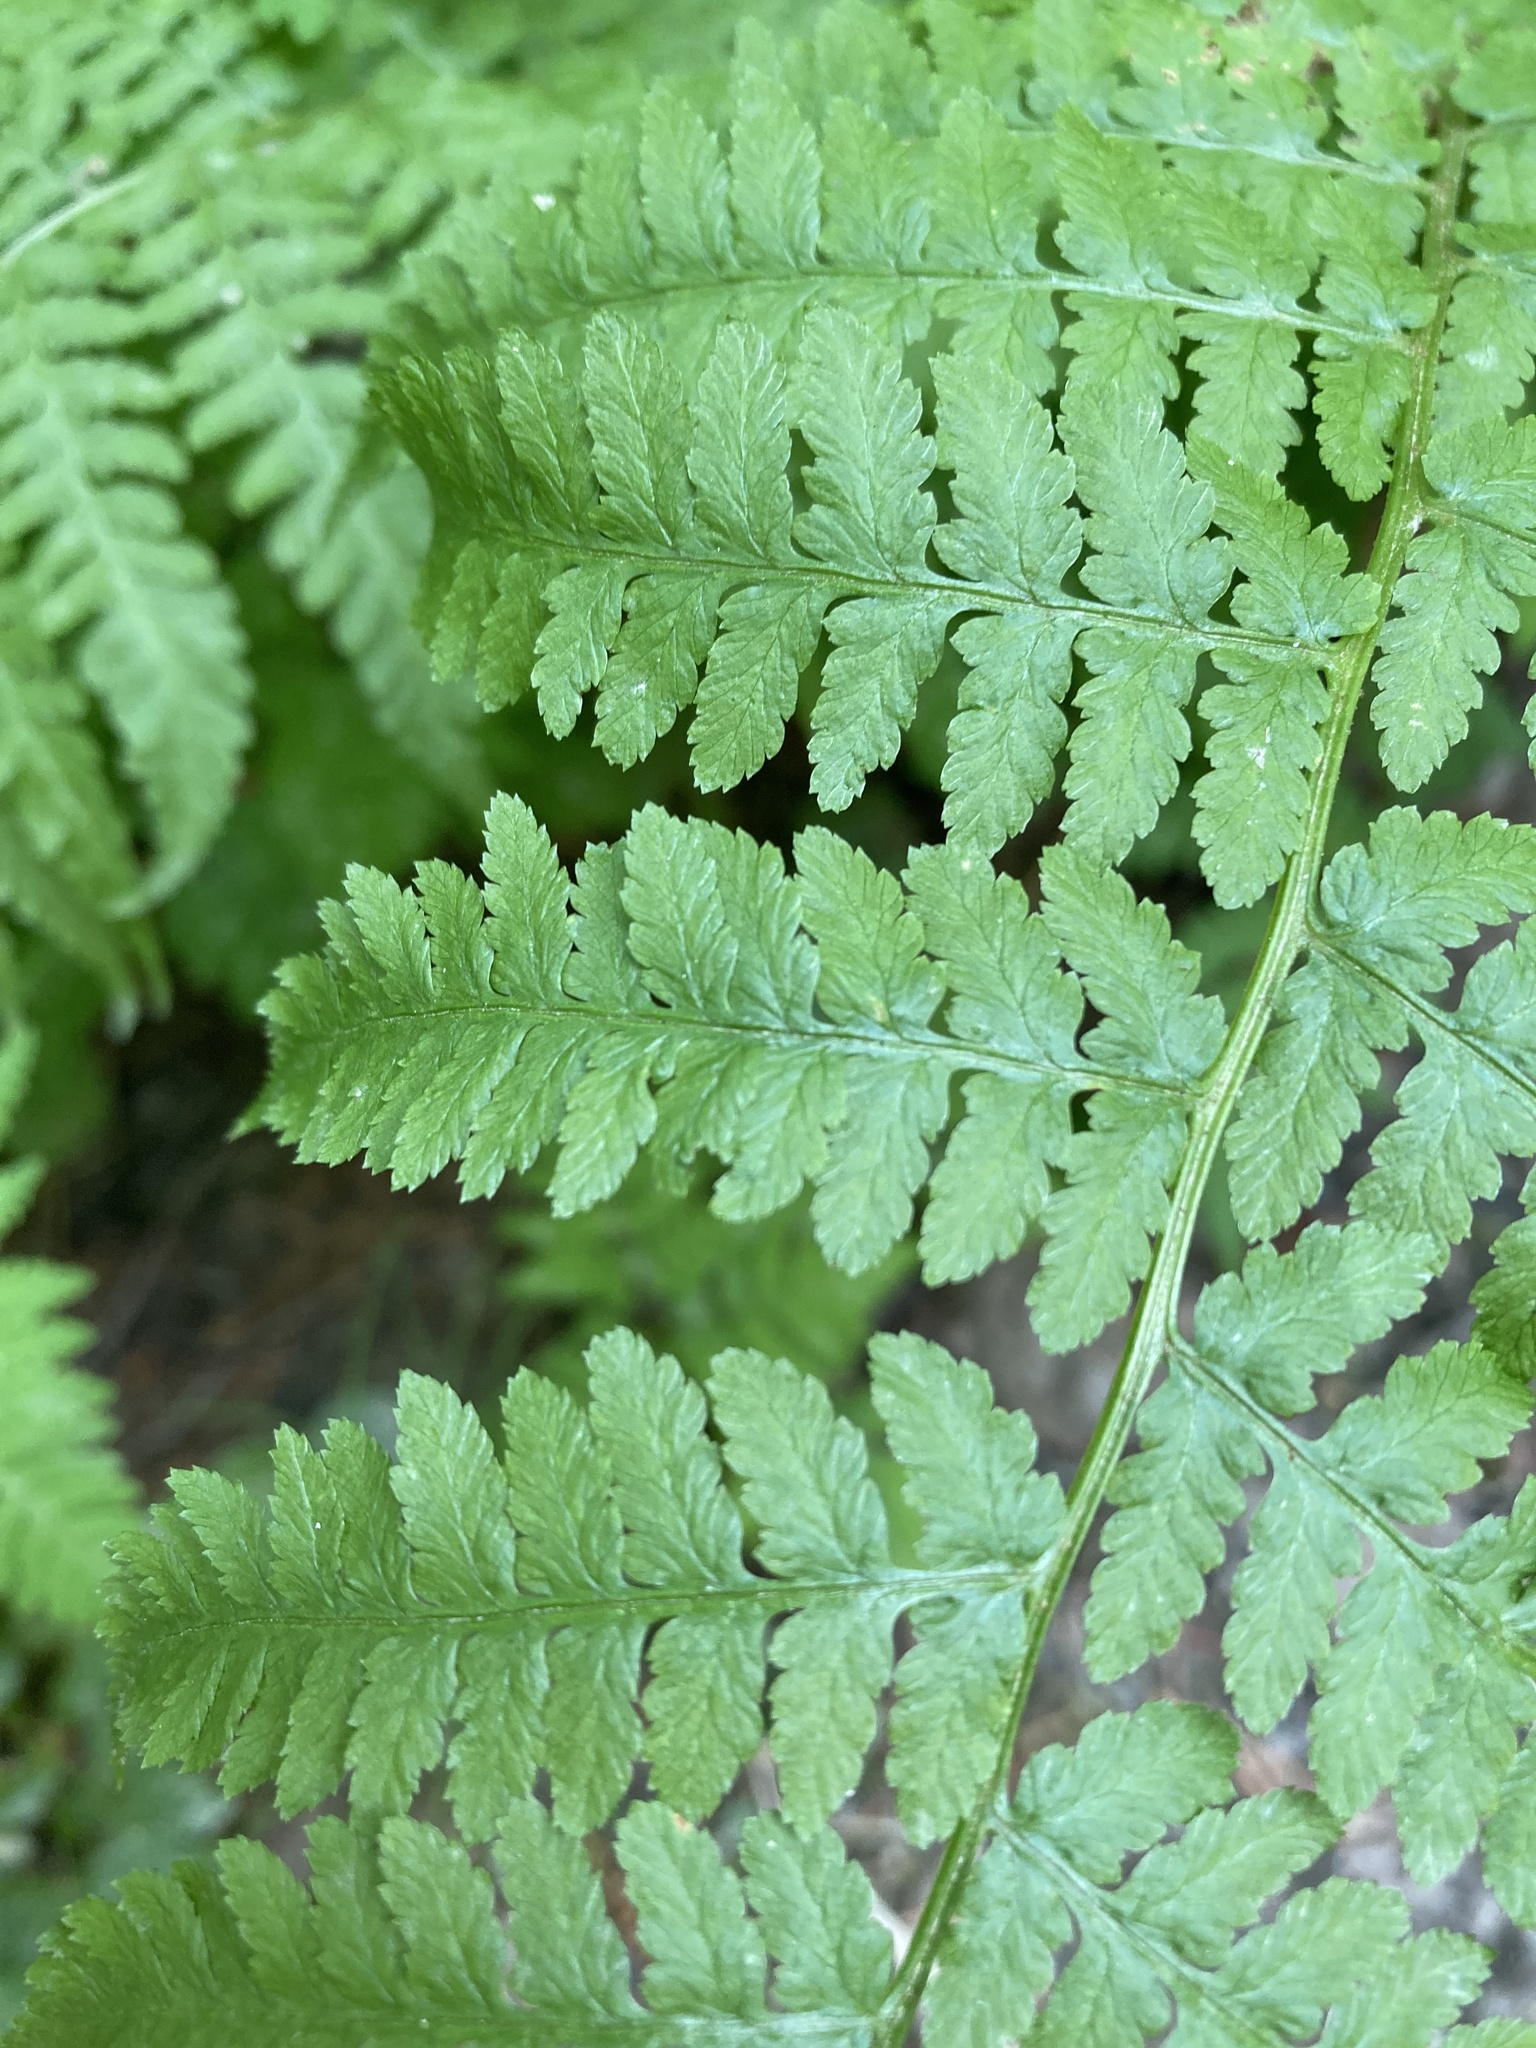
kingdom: Plantae
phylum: Tracheophyta
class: Polypodiopsida
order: Polypodiales
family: Athyriaceae
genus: Athyrium
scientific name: Athyrium filix-femina
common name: Lady fern
